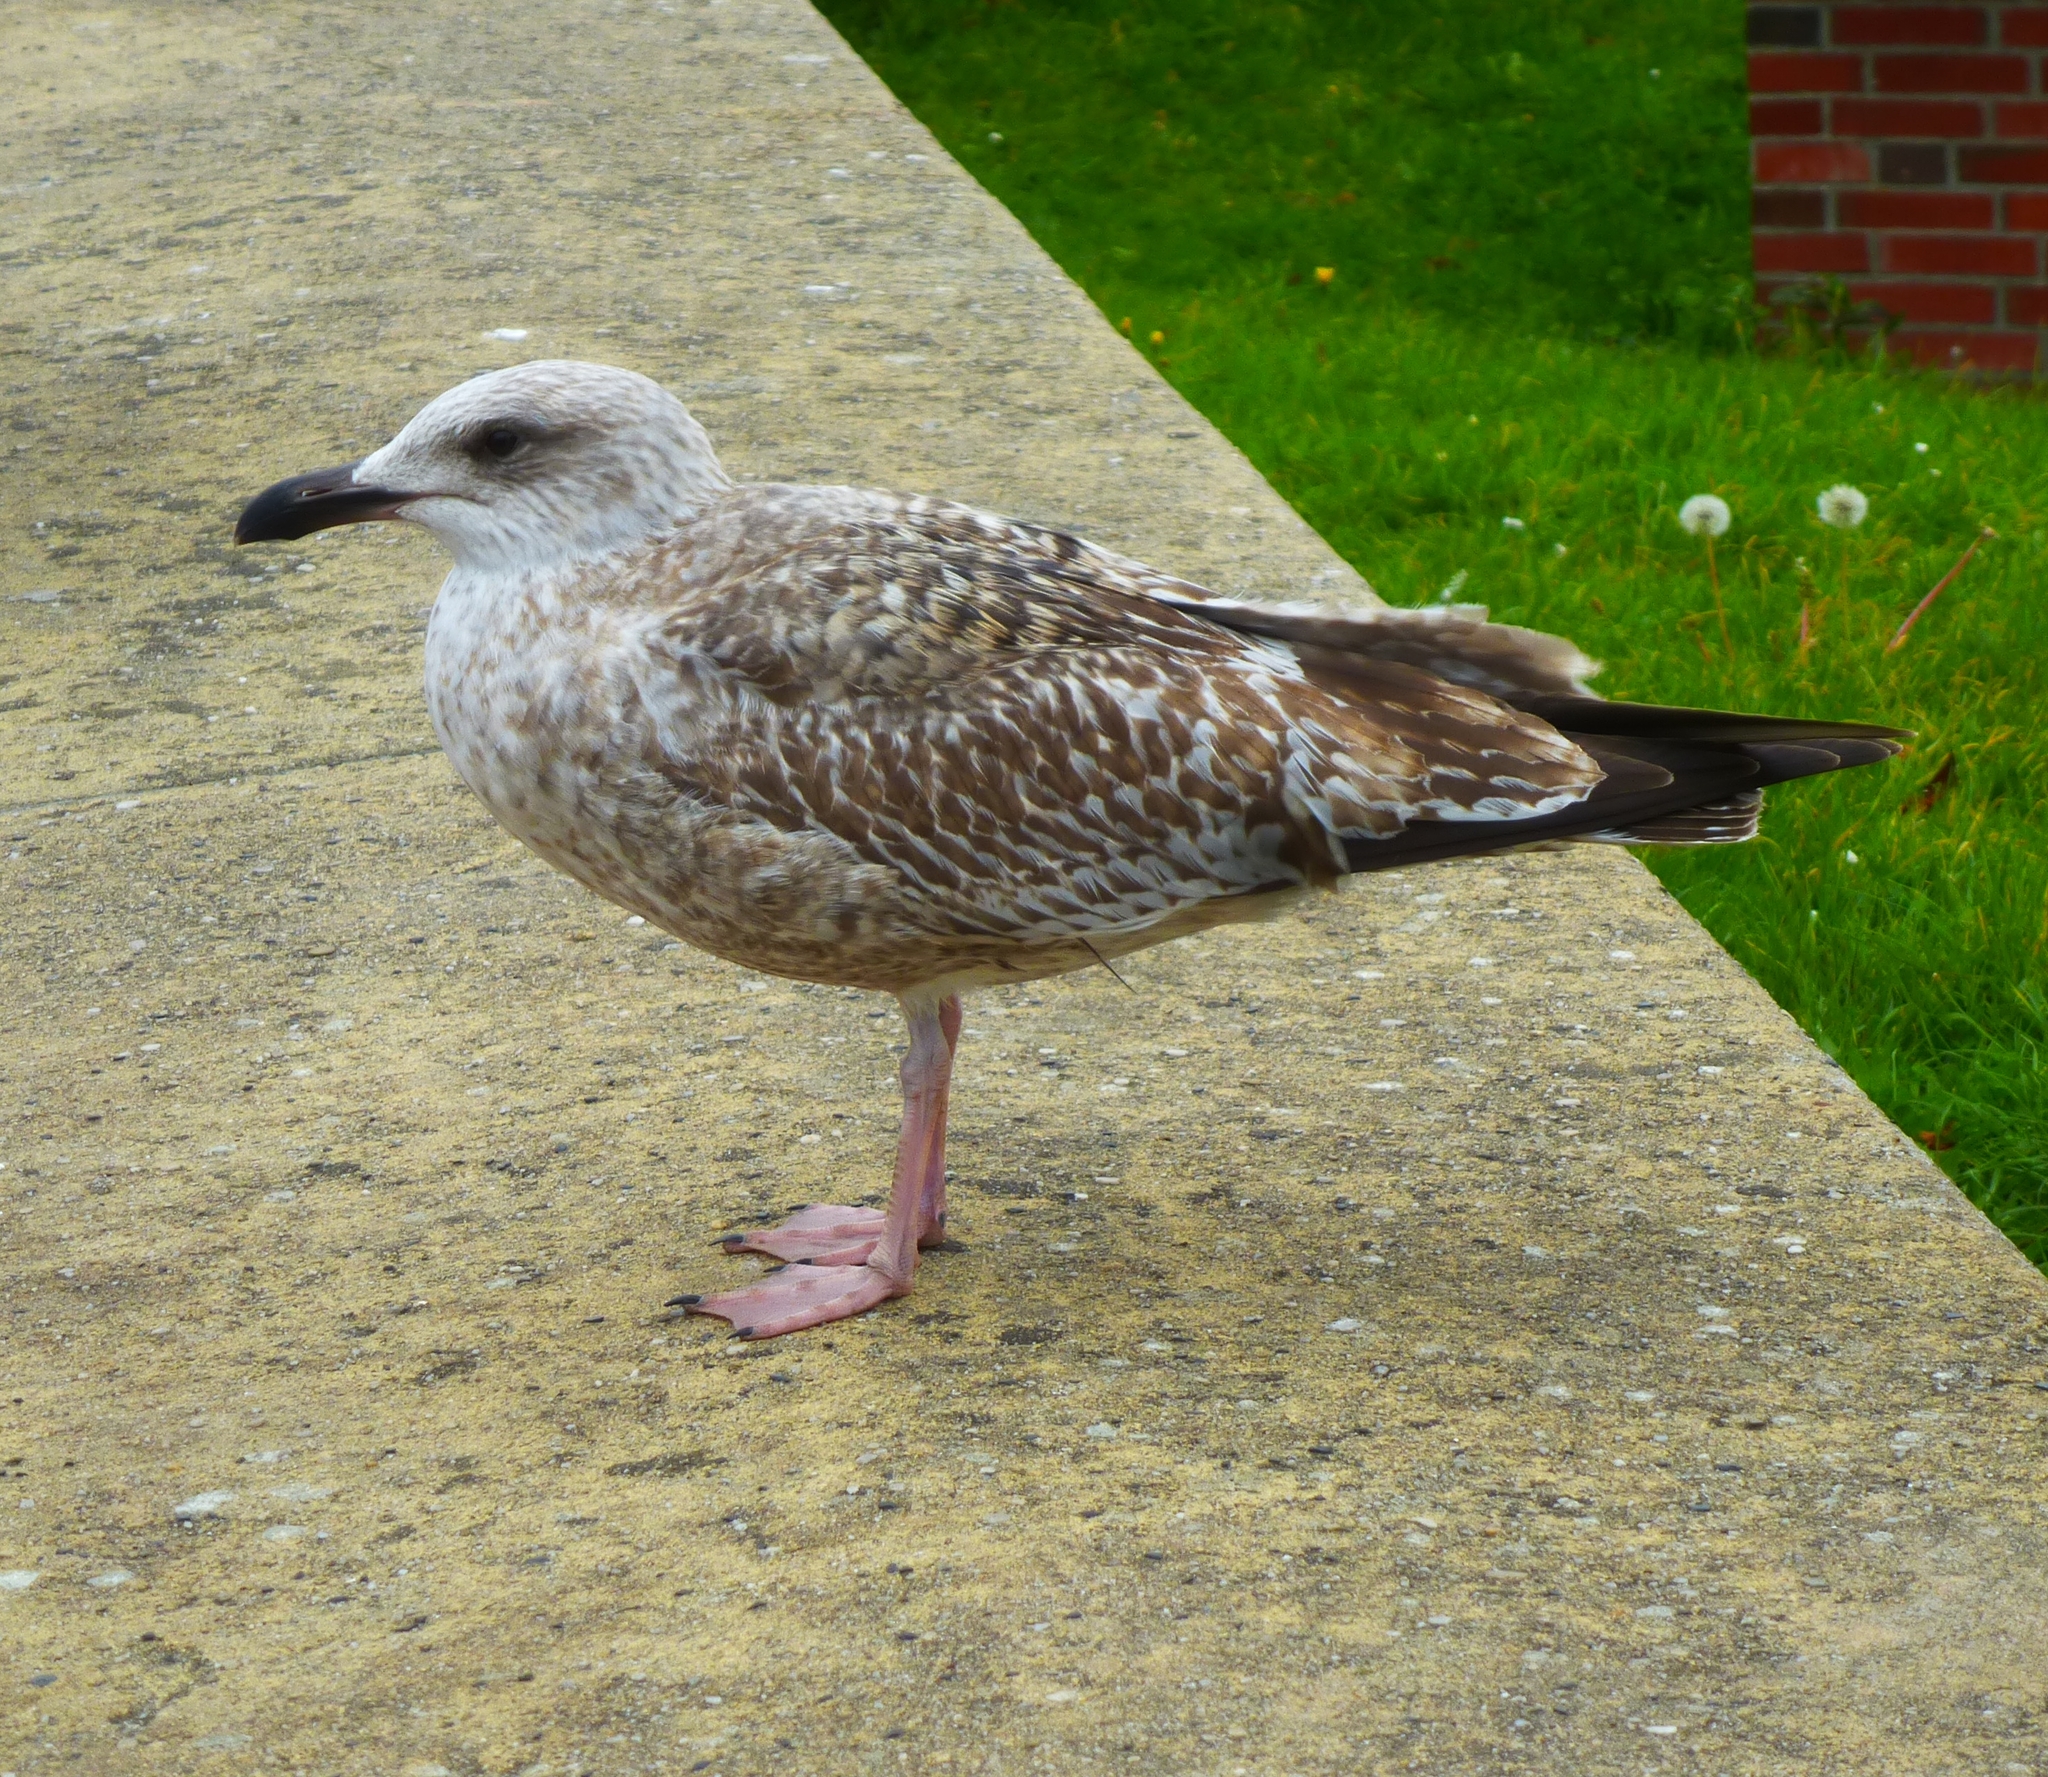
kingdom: Animalia
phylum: Chordata
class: Aves
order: Charadriiformes
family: Laridae
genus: Larus
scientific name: Larus argentatus
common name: Herring gull
